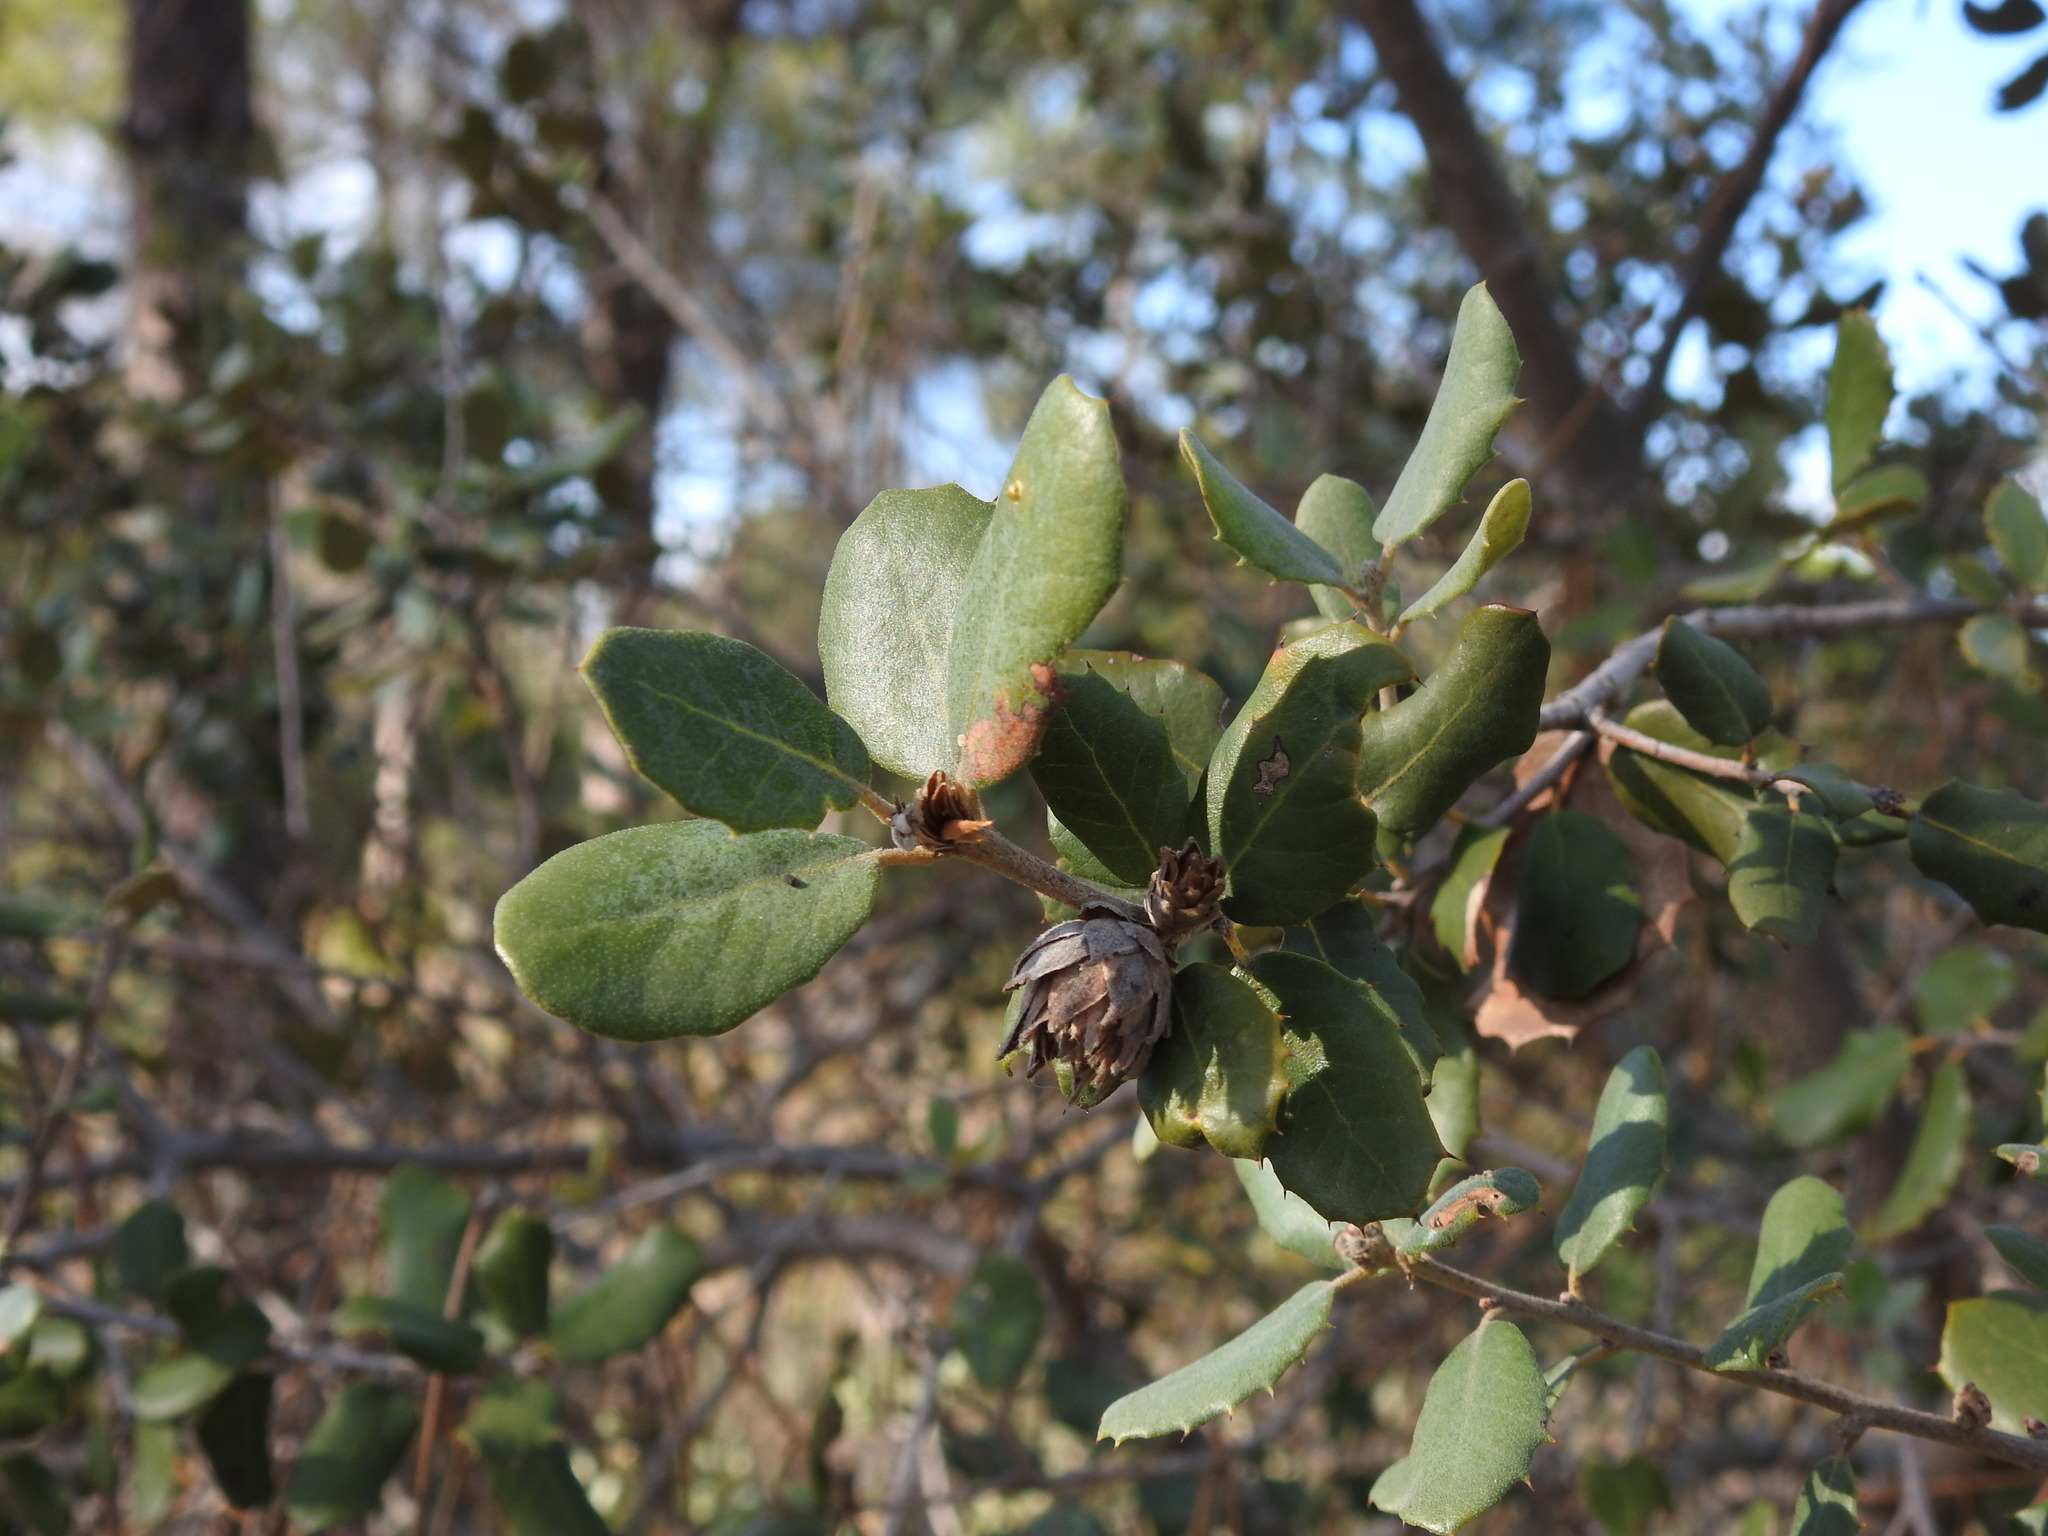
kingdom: Animalia
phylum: Arthropoda
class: Insecta
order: Diptera
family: Cecidomyiidae
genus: Blastodiplosis
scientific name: Blastodiplosis cocciferae
